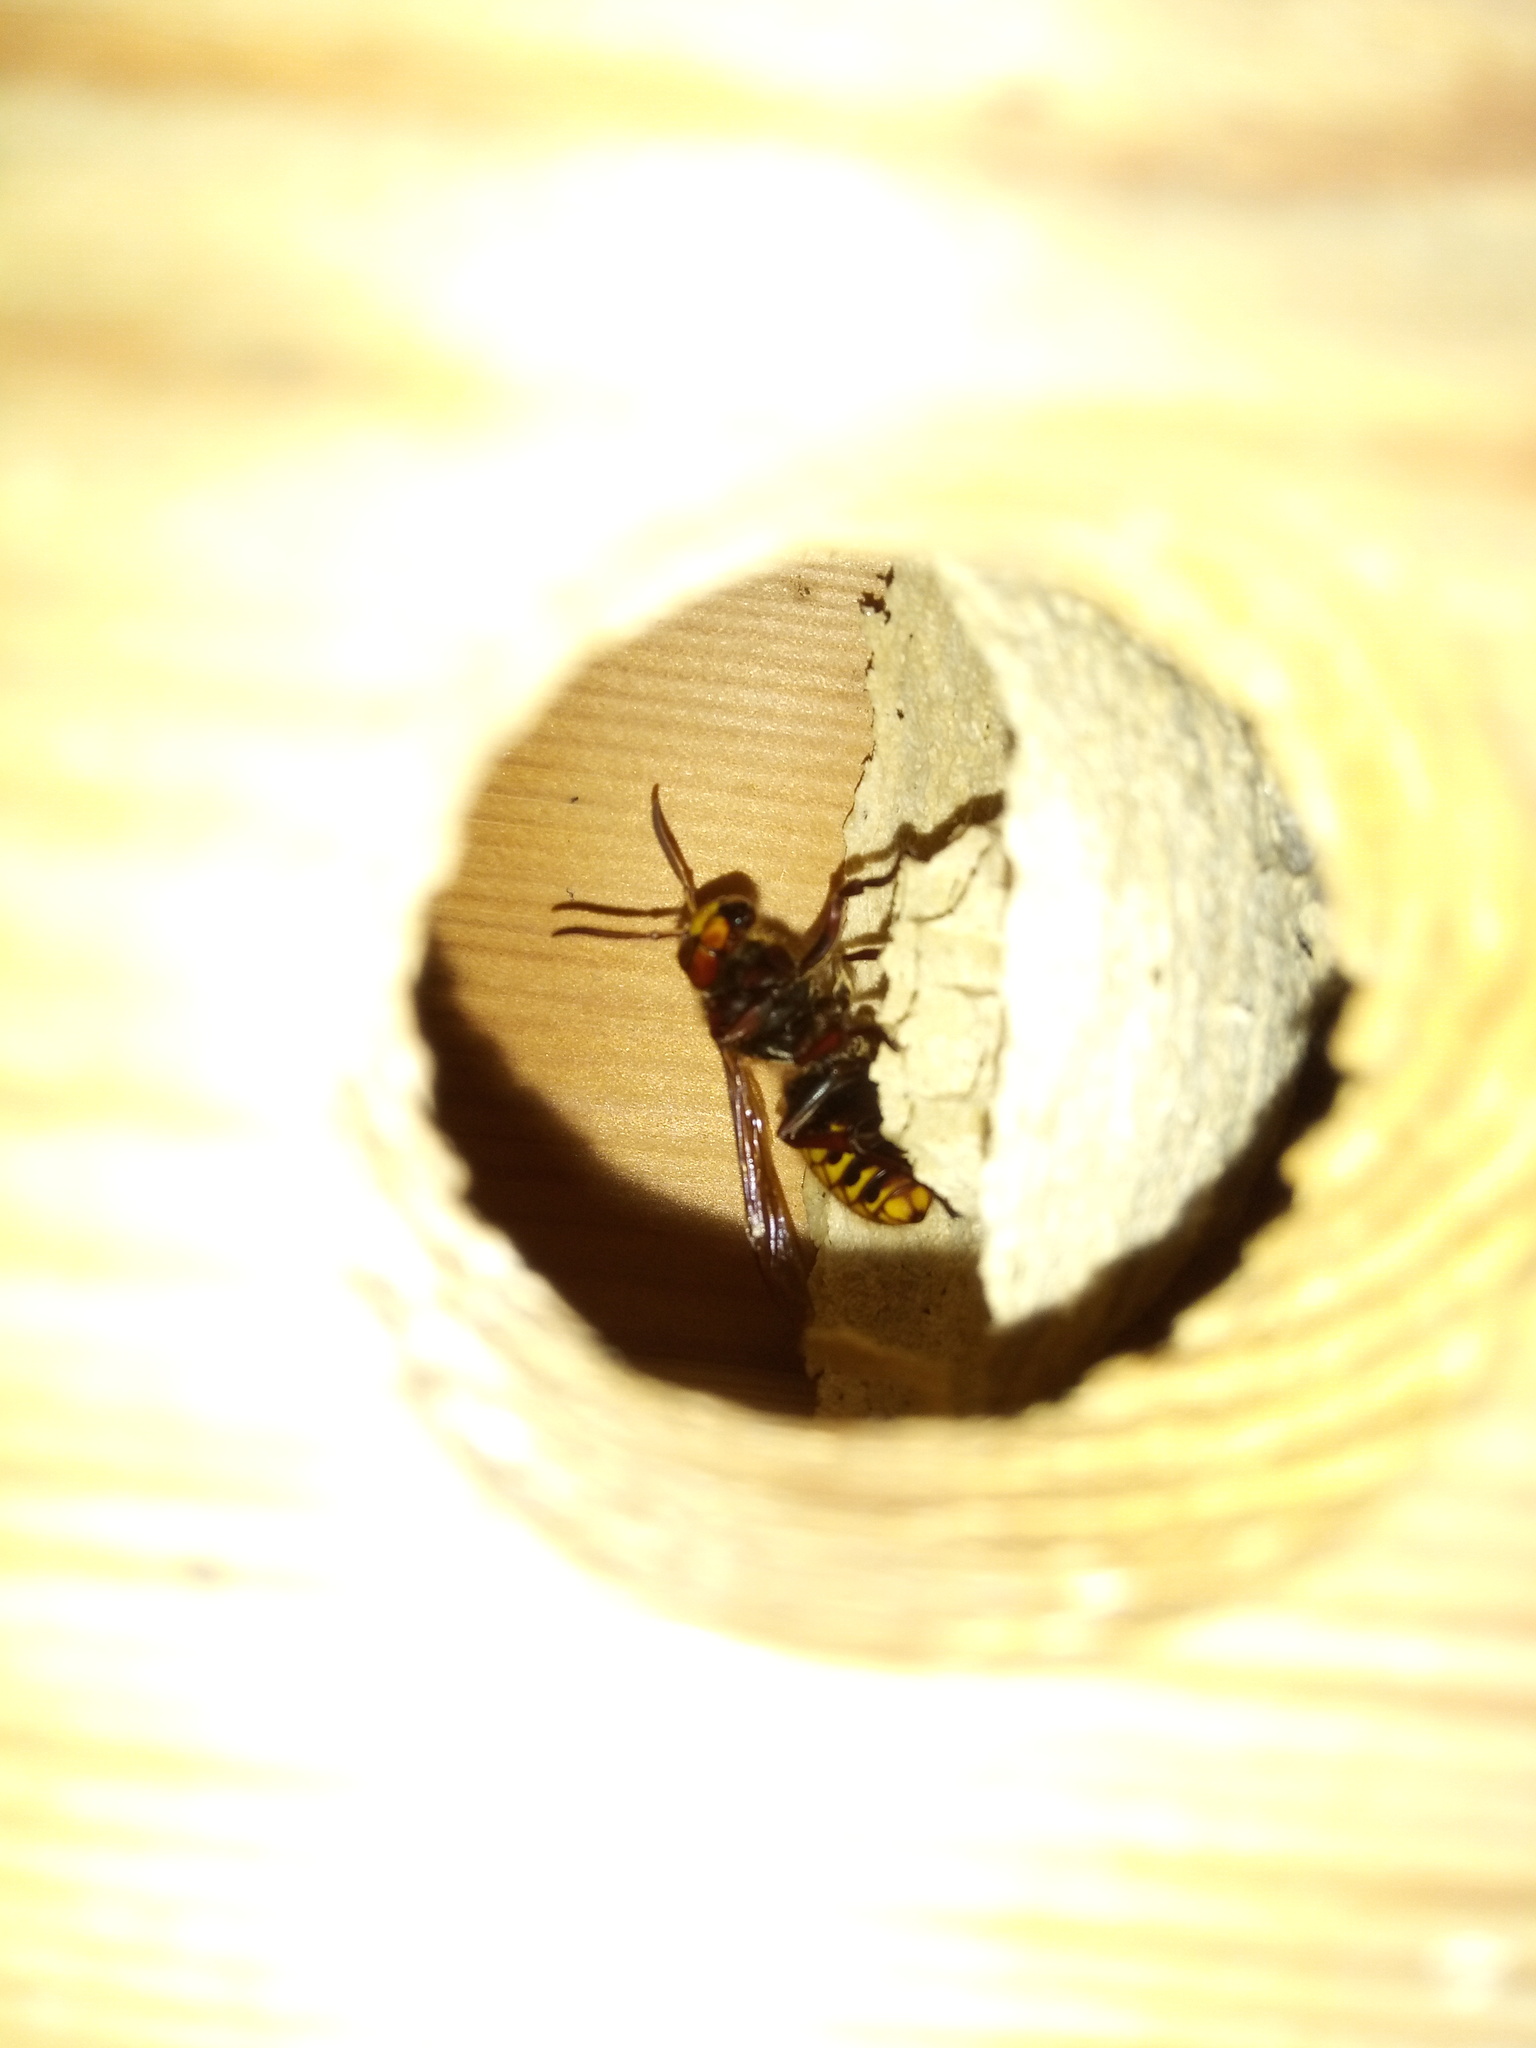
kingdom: Animalia
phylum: Arthropoda
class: Insecta
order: Hymenoptera
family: Vespidae
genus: Vespa
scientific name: Vespa crabro
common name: Hornet
